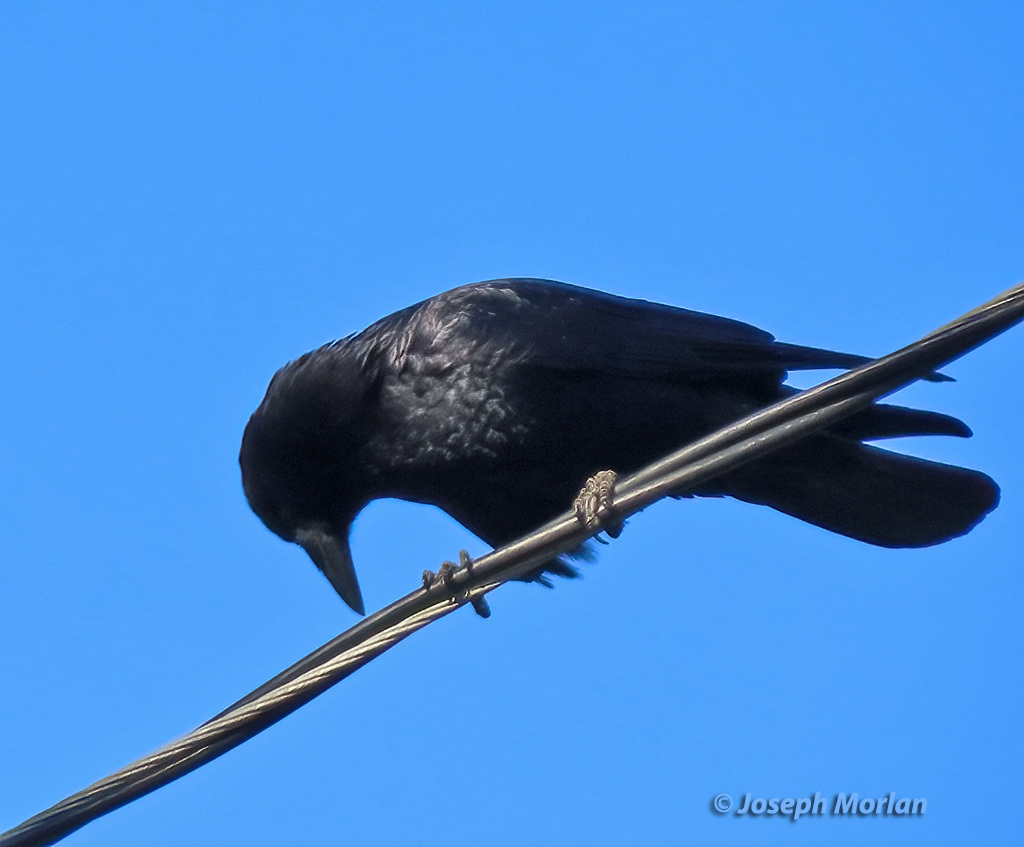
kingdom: Animalia
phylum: Chordata
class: Aves
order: Passeriformes
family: Corvidae
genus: Corvus
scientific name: Corvus brachyrhynchos
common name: American crow
